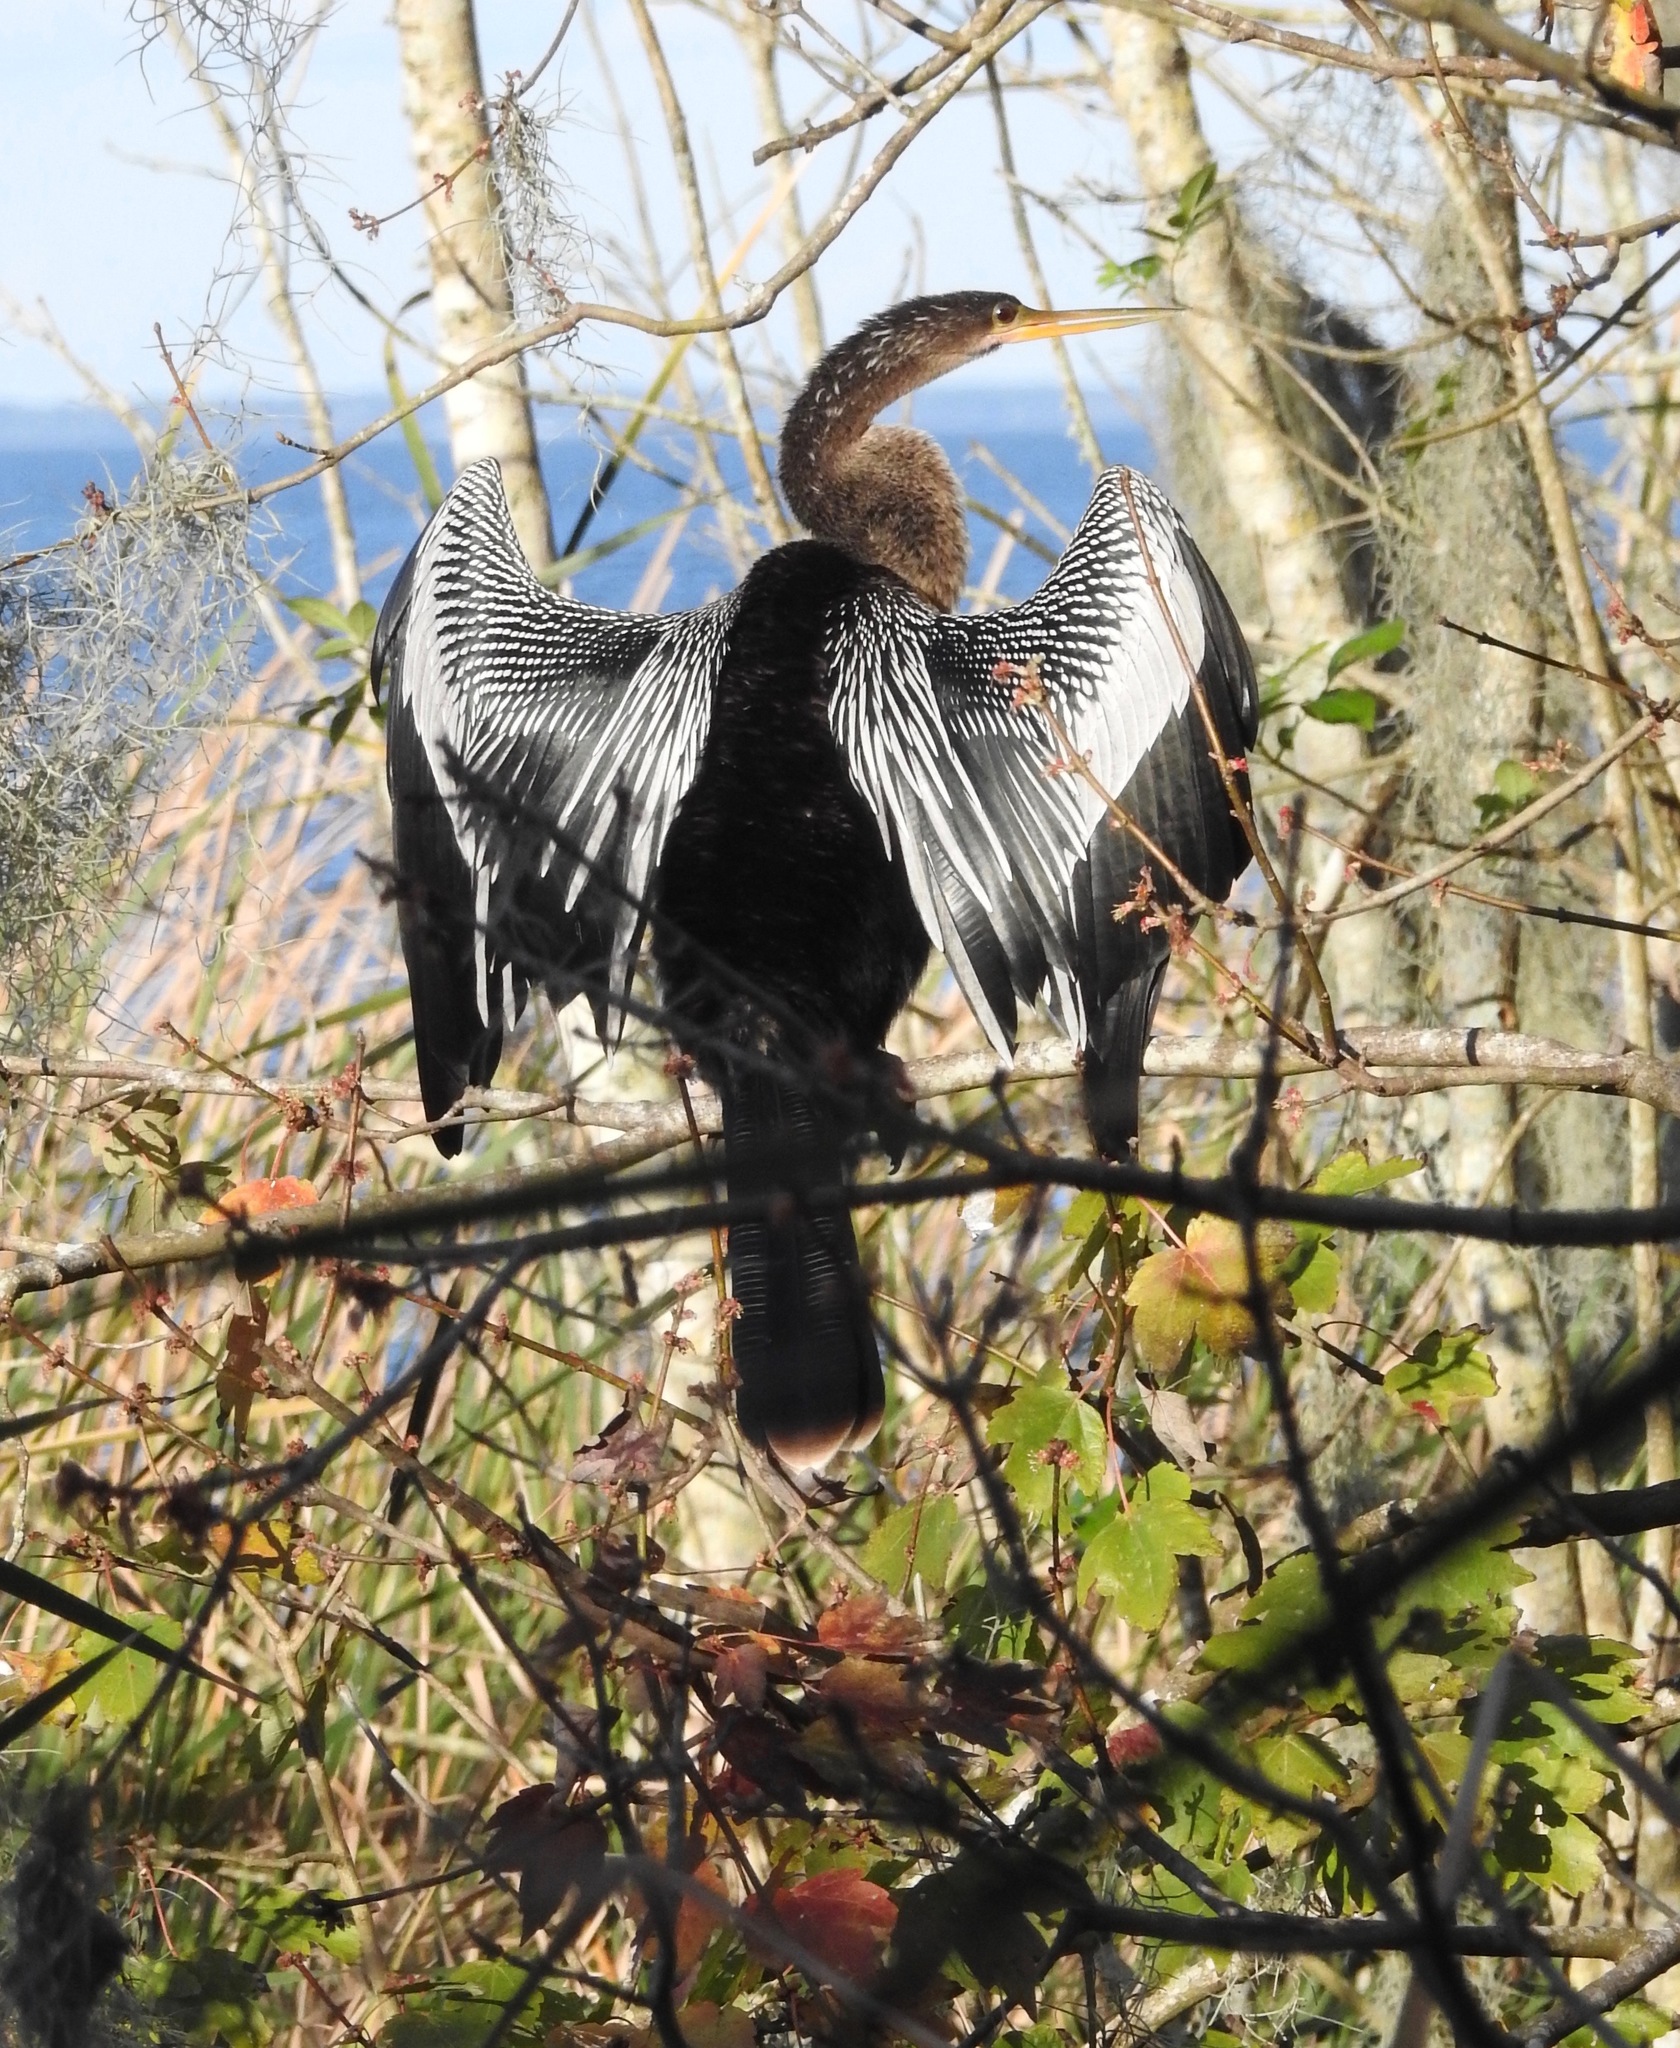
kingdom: Animalia
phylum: Chordata
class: Aves
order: Suliformes
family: Anhingidae
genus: Anhinga
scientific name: Anhinga anhinga
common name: Anhinga
